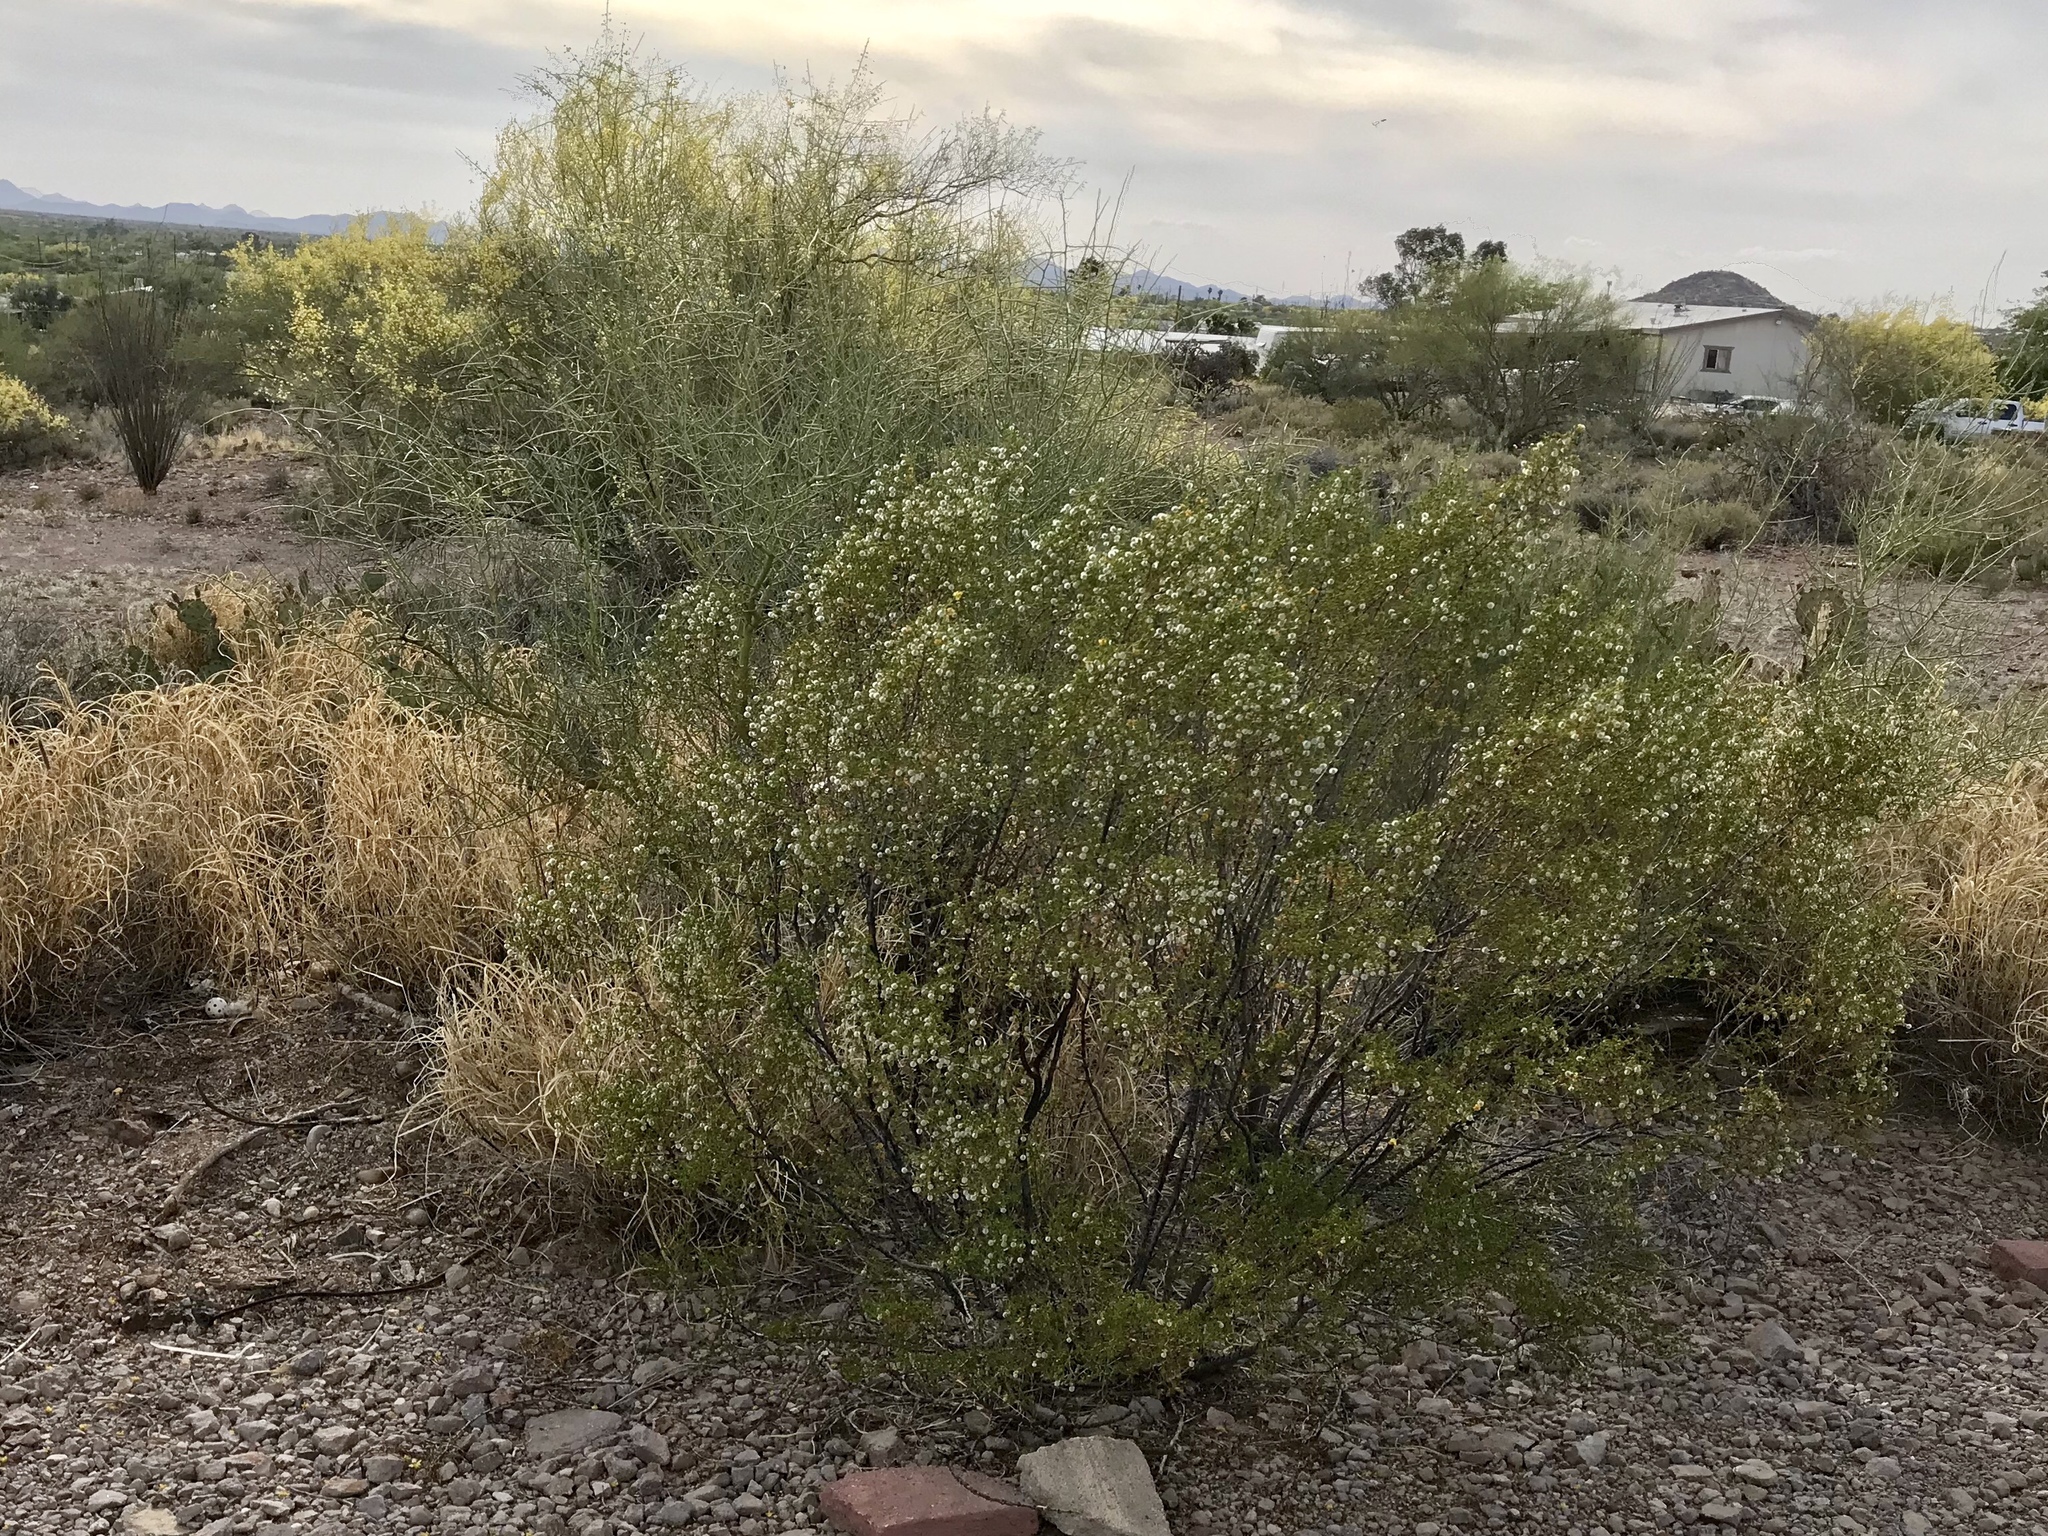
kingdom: Plantae
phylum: Tracheophyta
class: Magnoliopsida
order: Zygophyllales
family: Zygophyllaceae
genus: Larrea
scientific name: Larrea tridentata
